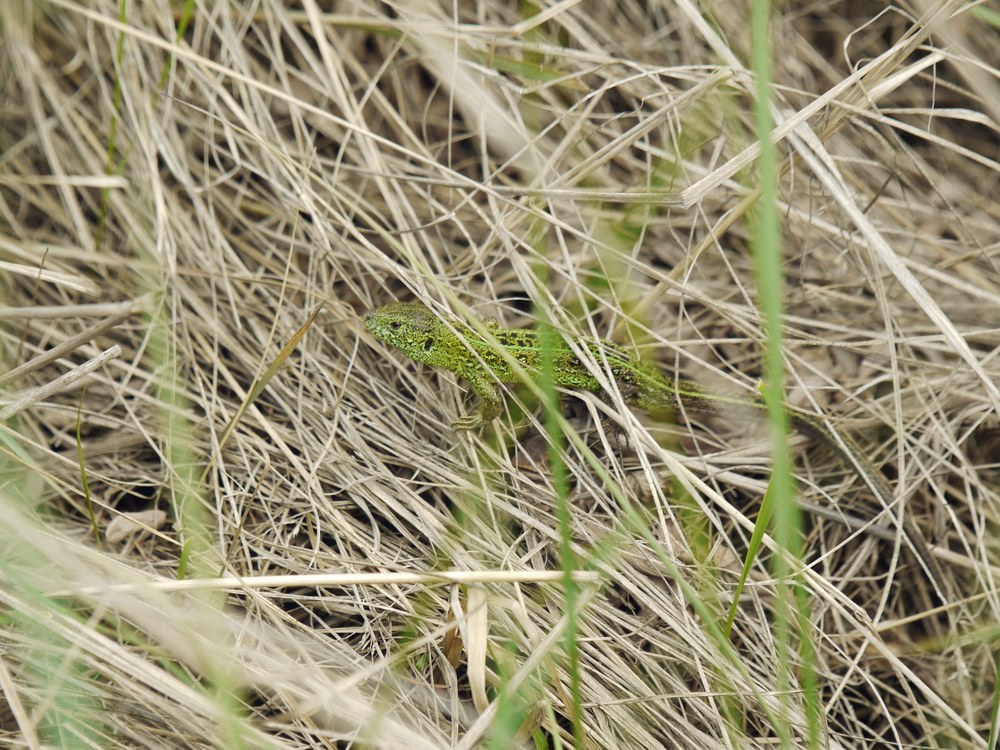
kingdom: Animalia
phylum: Chordata
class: Squamata
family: Lacertidae
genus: Lacerta
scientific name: Lacerta agilis
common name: Sand lizard
